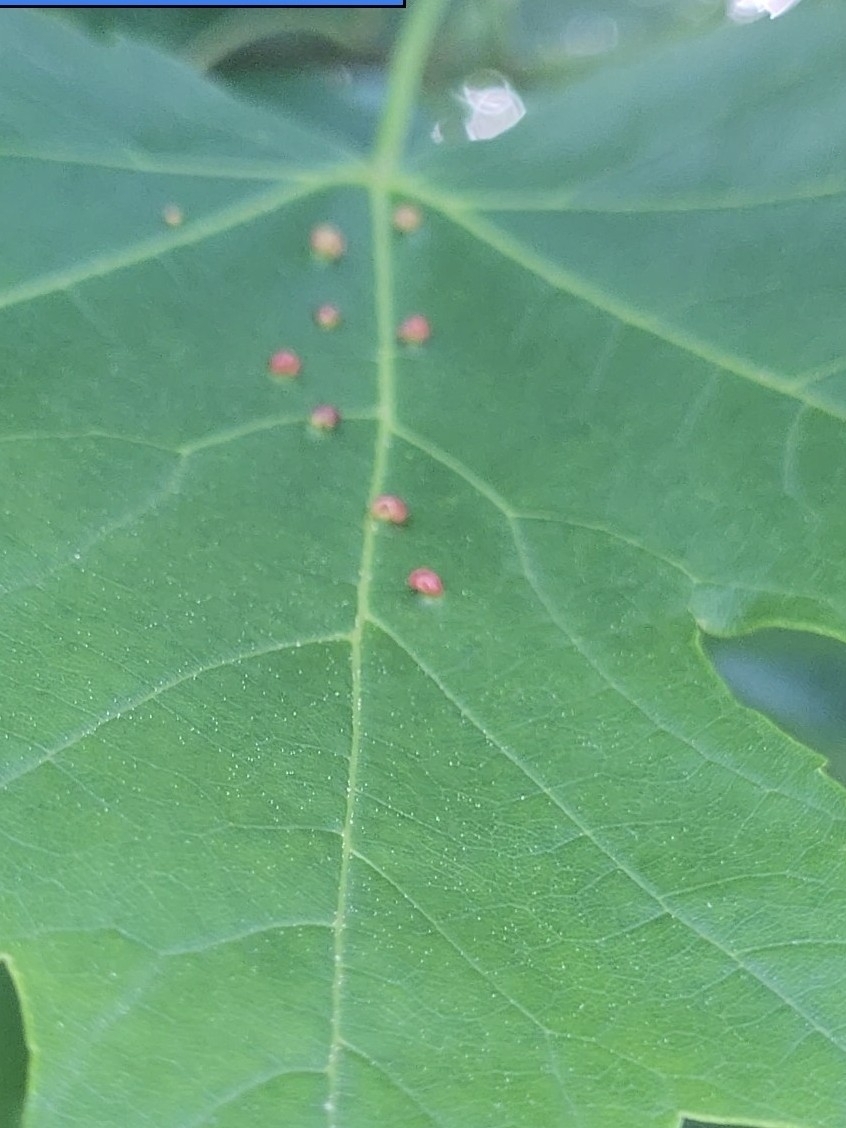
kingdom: Animalia
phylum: Arthropoda
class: Arachnida
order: Trombidiformes
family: Eriophyidae
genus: Vasates
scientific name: Vasates quadripedes
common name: Maple bladder gall mite
